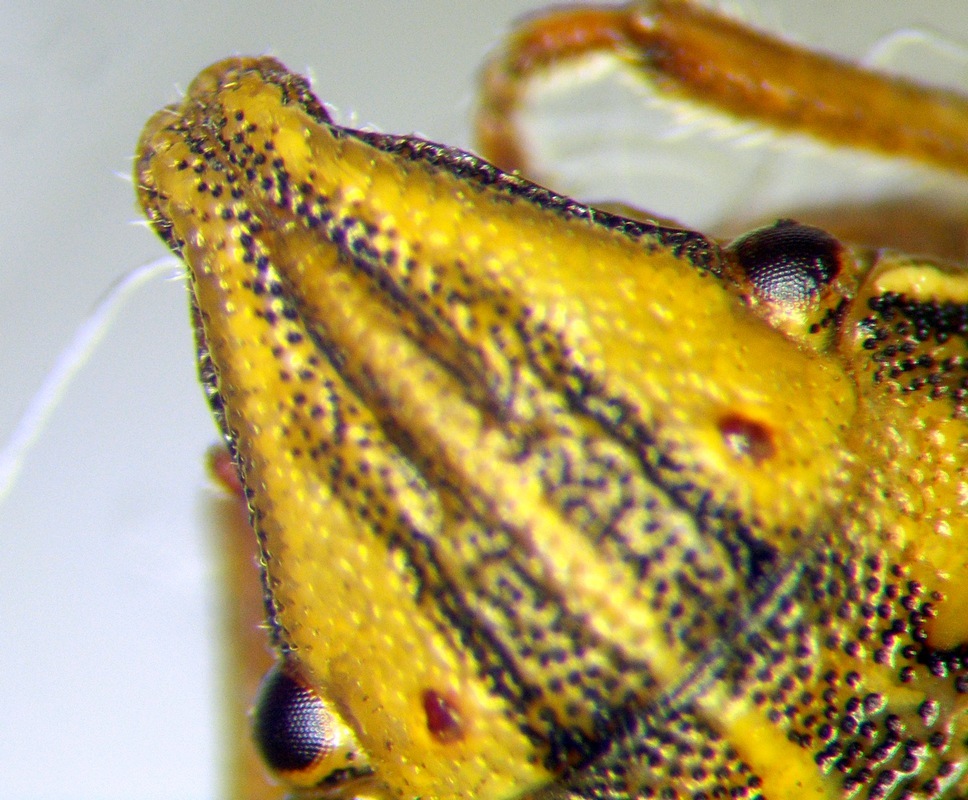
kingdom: Animalia
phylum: Arthropoda
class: Insecta
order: Hemiptera
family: Pentatomidae
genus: Aelia
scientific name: Aelia furcula
